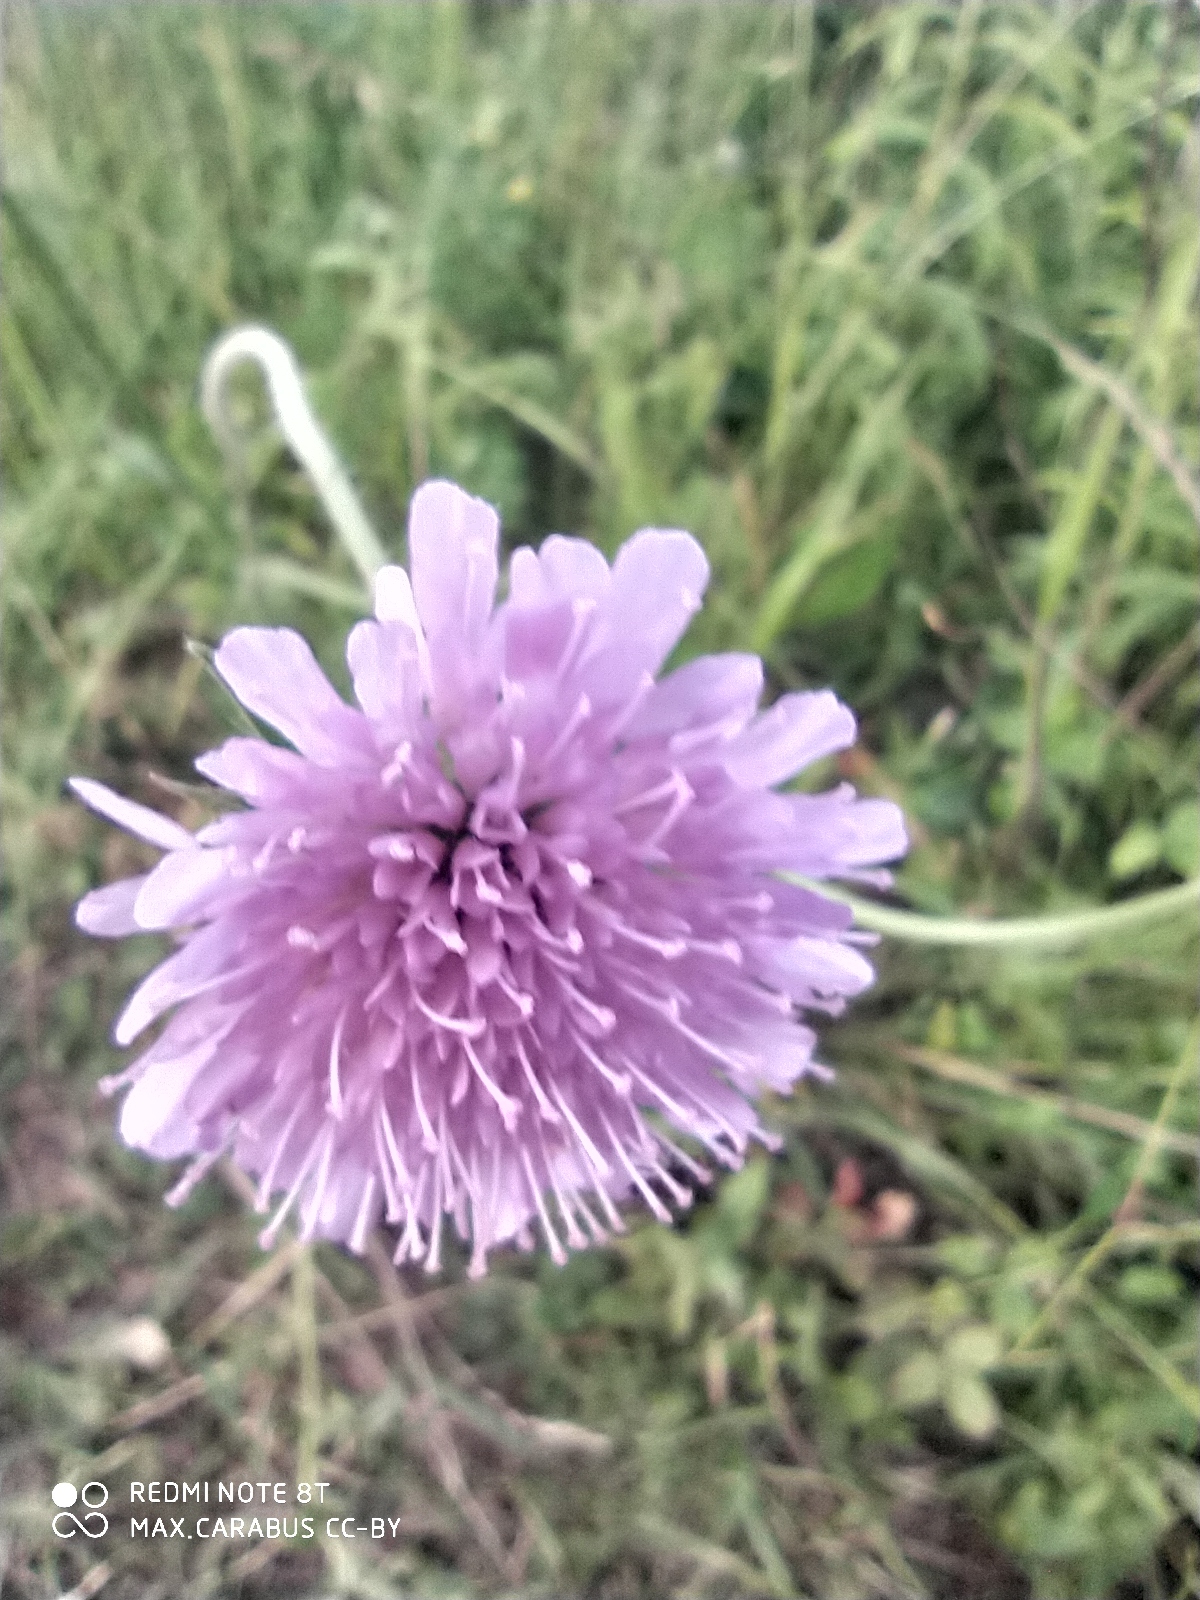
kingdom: Plantae
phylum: Tracheophyta
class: Magnoliopsida
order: Dipsacales
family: Caprifoliaceae
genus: Knautia
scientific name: Knautia arvensis
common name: Field scabiosa
